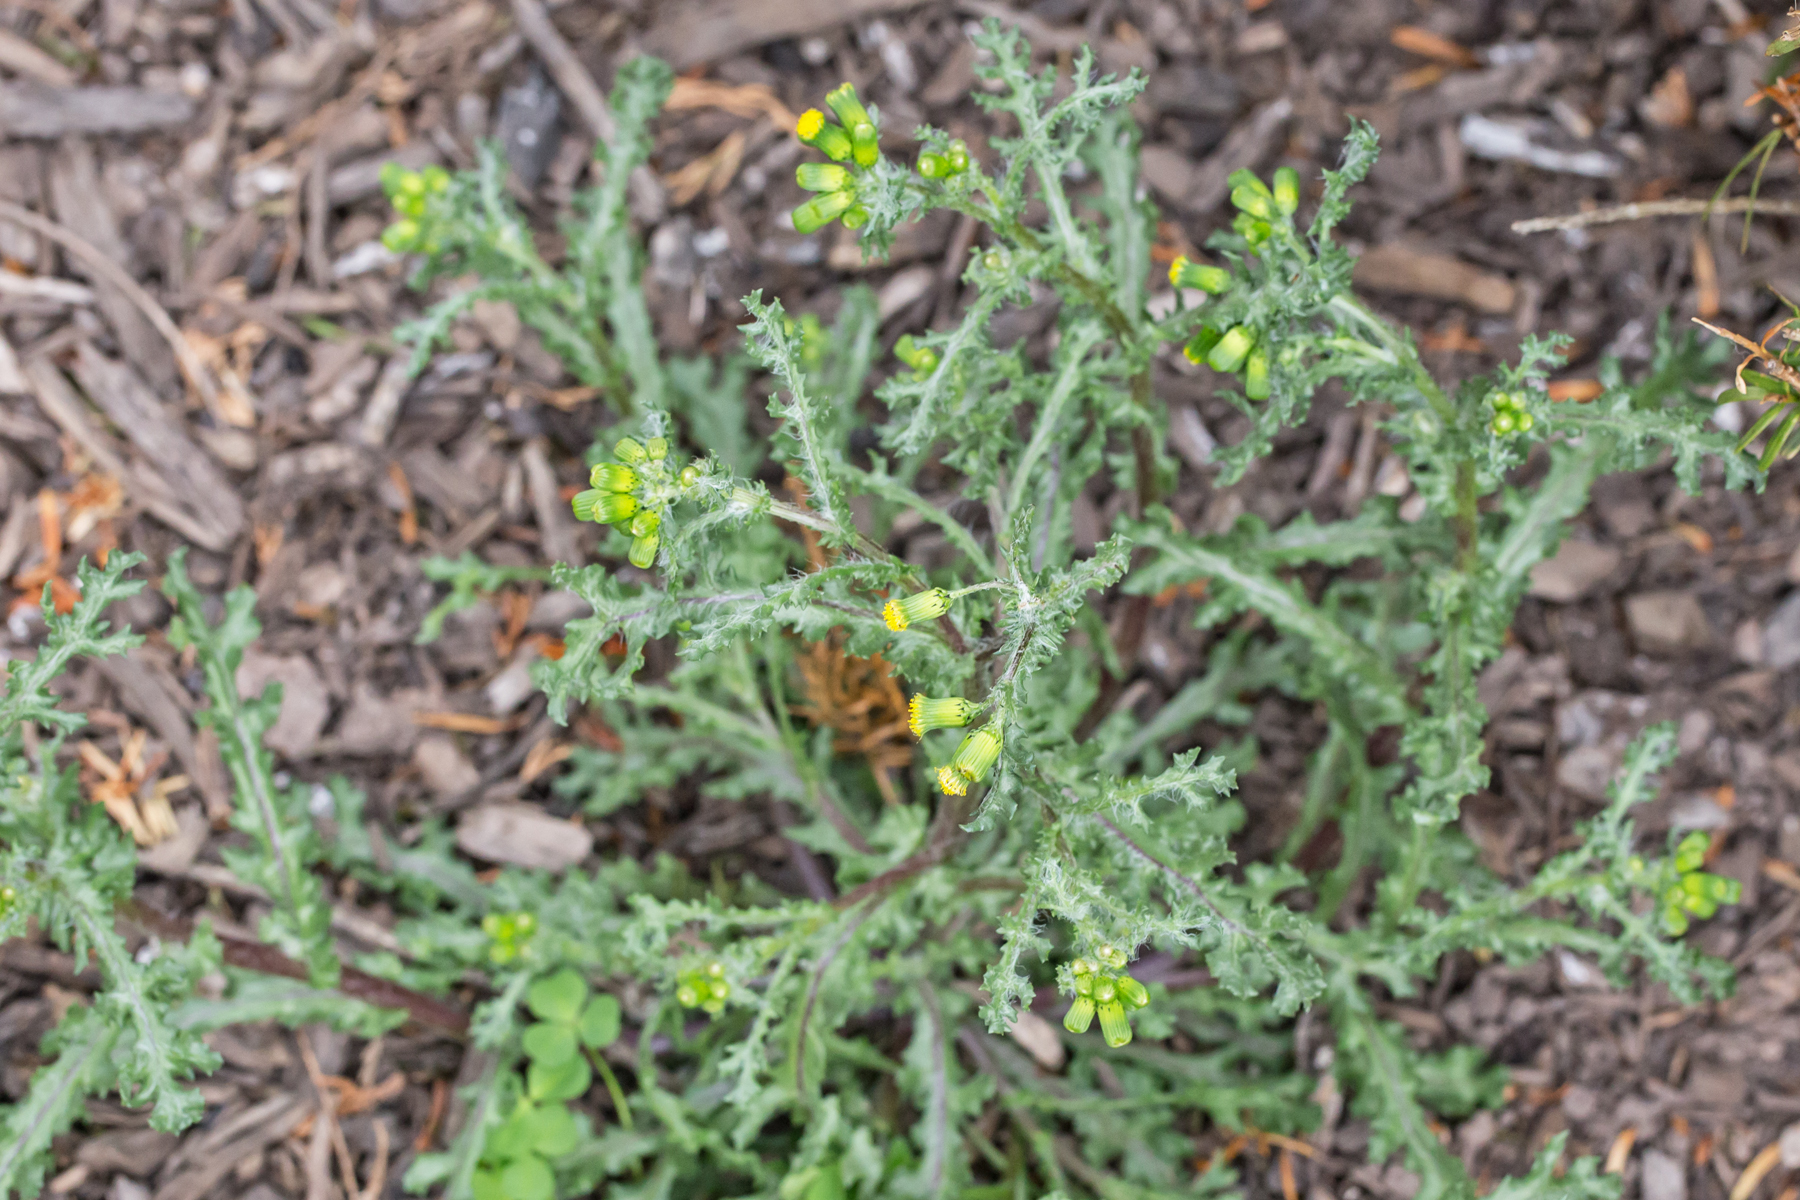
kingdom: Plantae
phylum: Tracheophyta
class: Magnoliopsida
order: Asterales
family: Asteraceae
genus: Senecio
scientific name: Senecio vulgaris
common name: Old-man-in-the-spring
